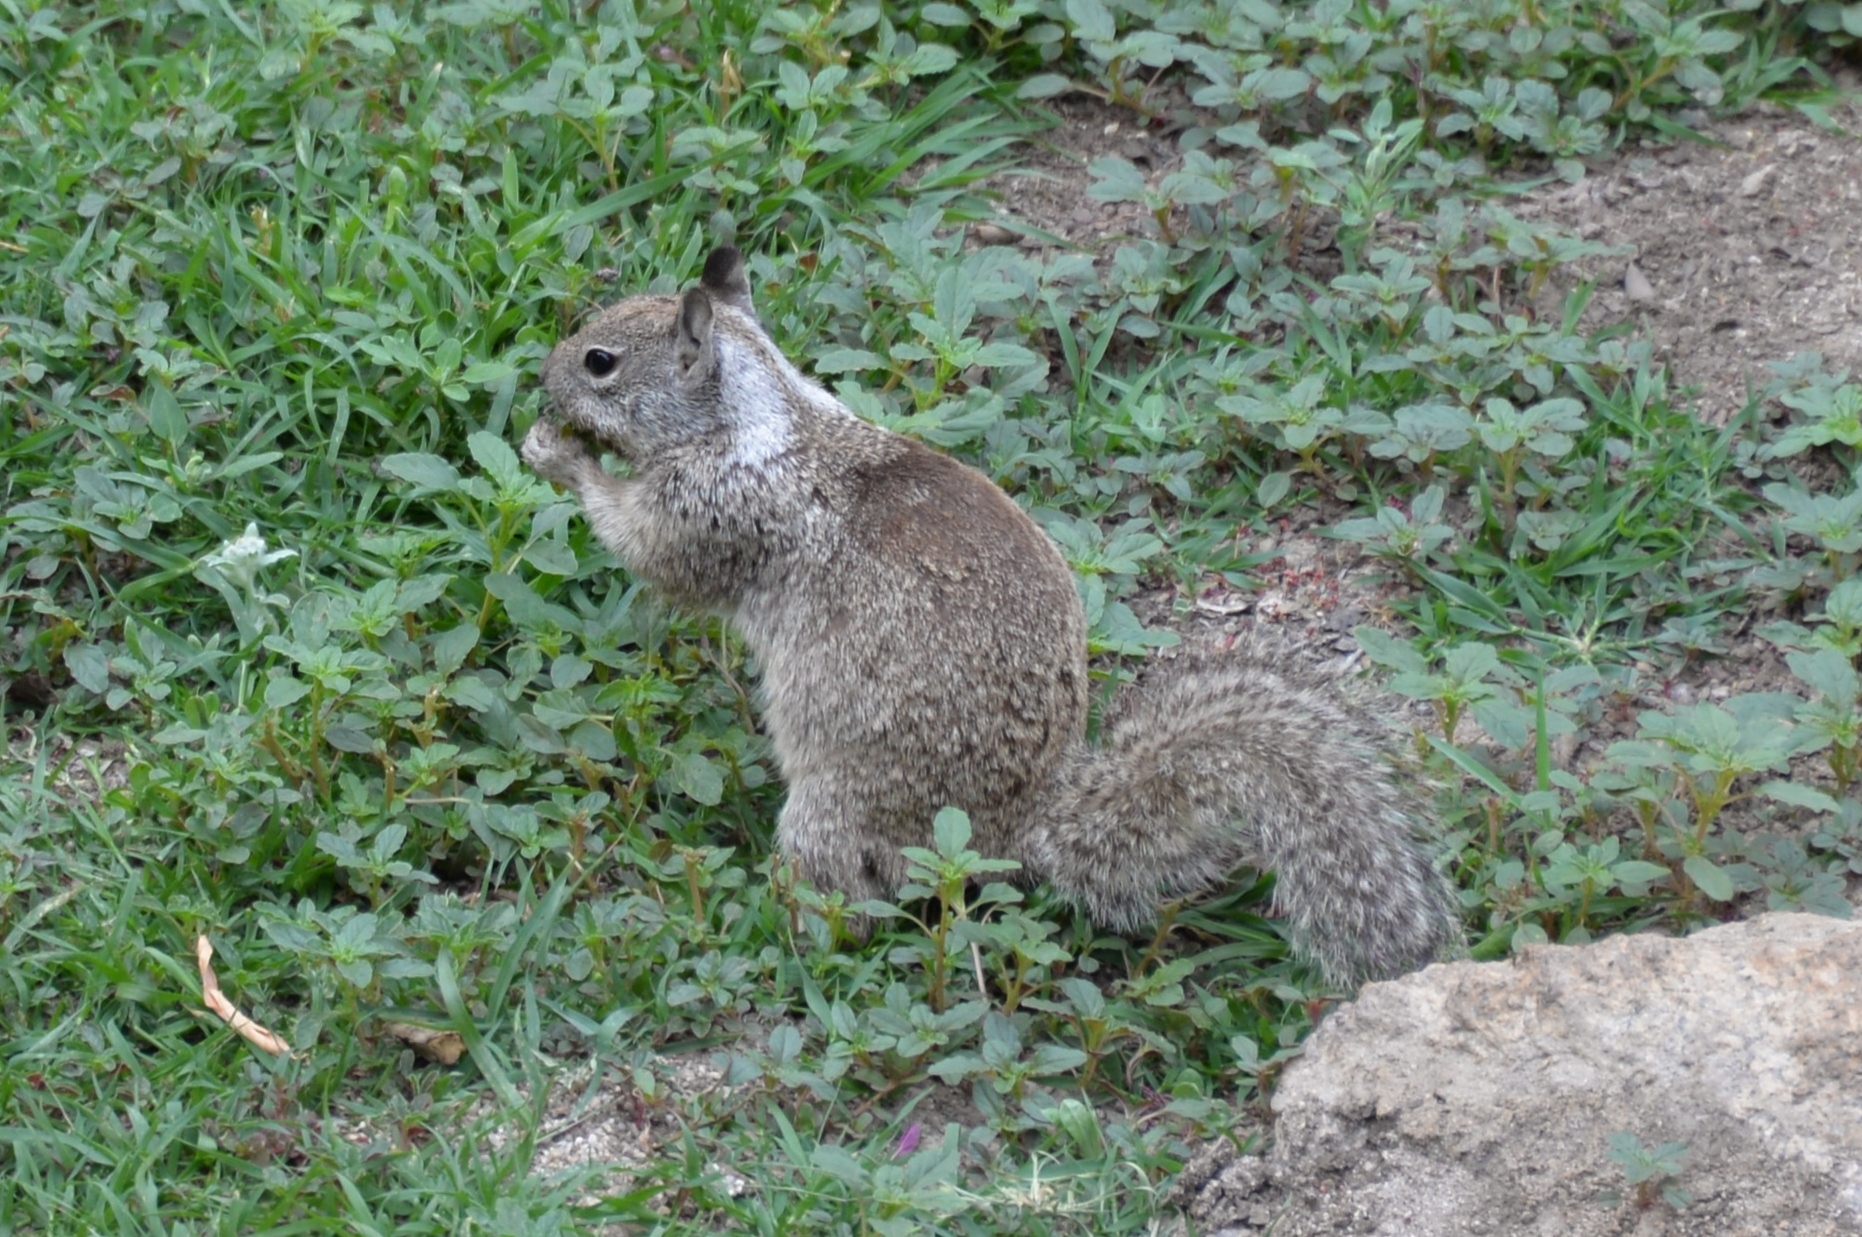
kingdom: Animalia
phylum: Chordata
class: Mammalia
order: Rodentia
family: Sciuridae
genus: Otospermophilus
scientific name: Otospermophilus beecheyi
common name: California ground squirrel
